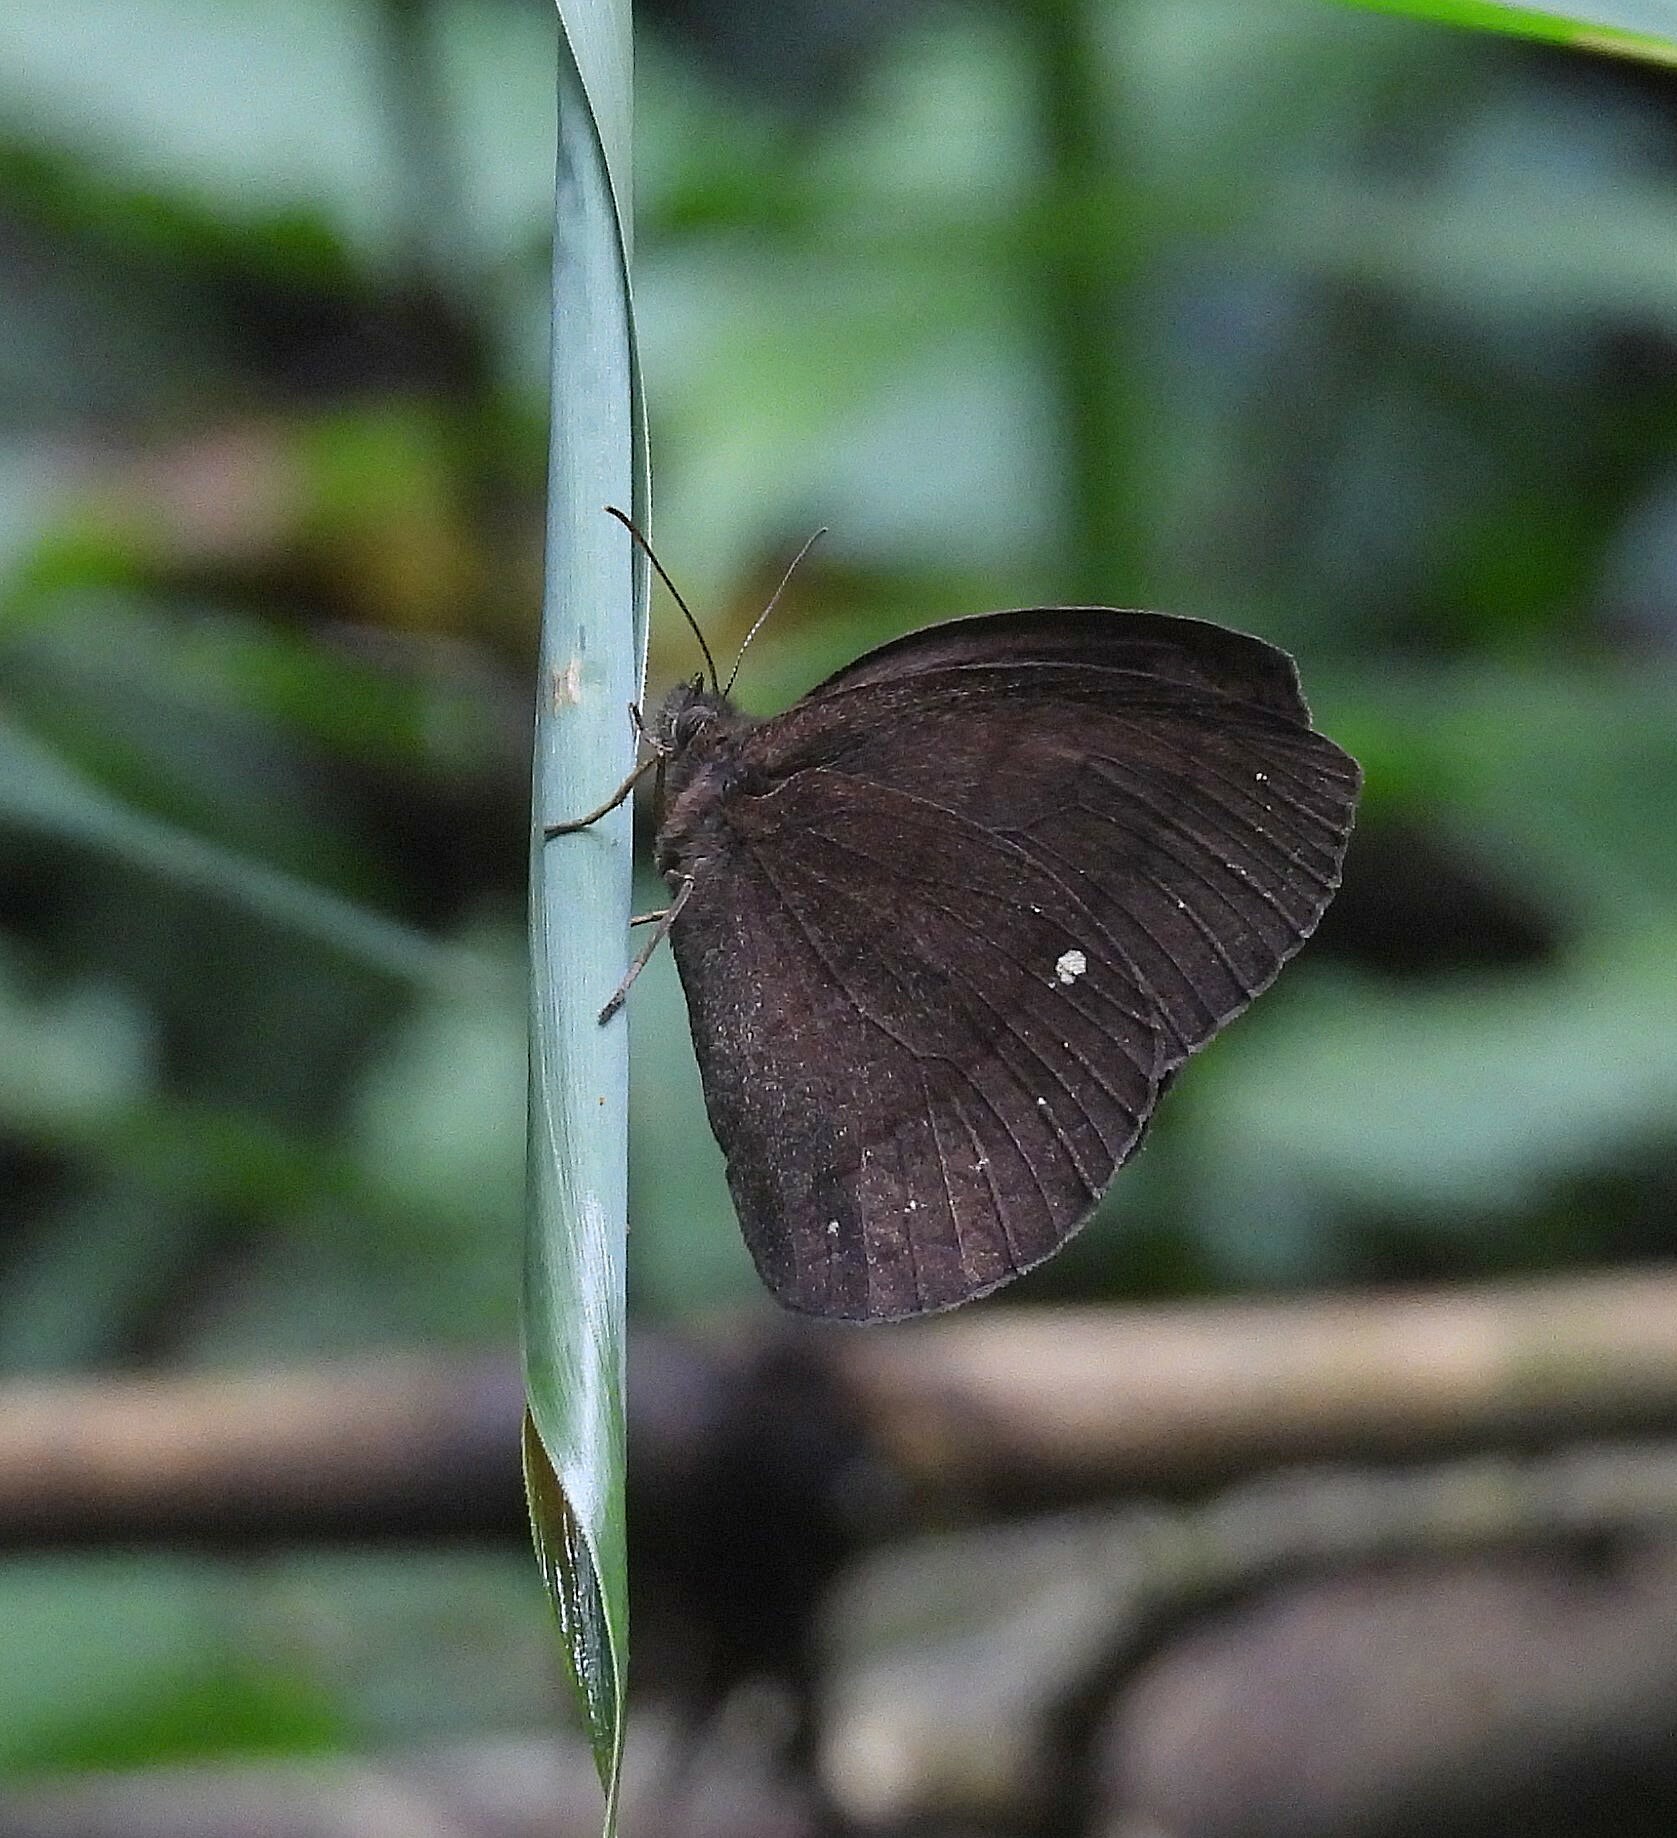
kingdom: Animalia
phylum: Arthropoda
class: Insecta
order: Lepidoptera
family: Nymphalidae
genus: Forsterinaria
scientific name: Forsterinaria quantius
